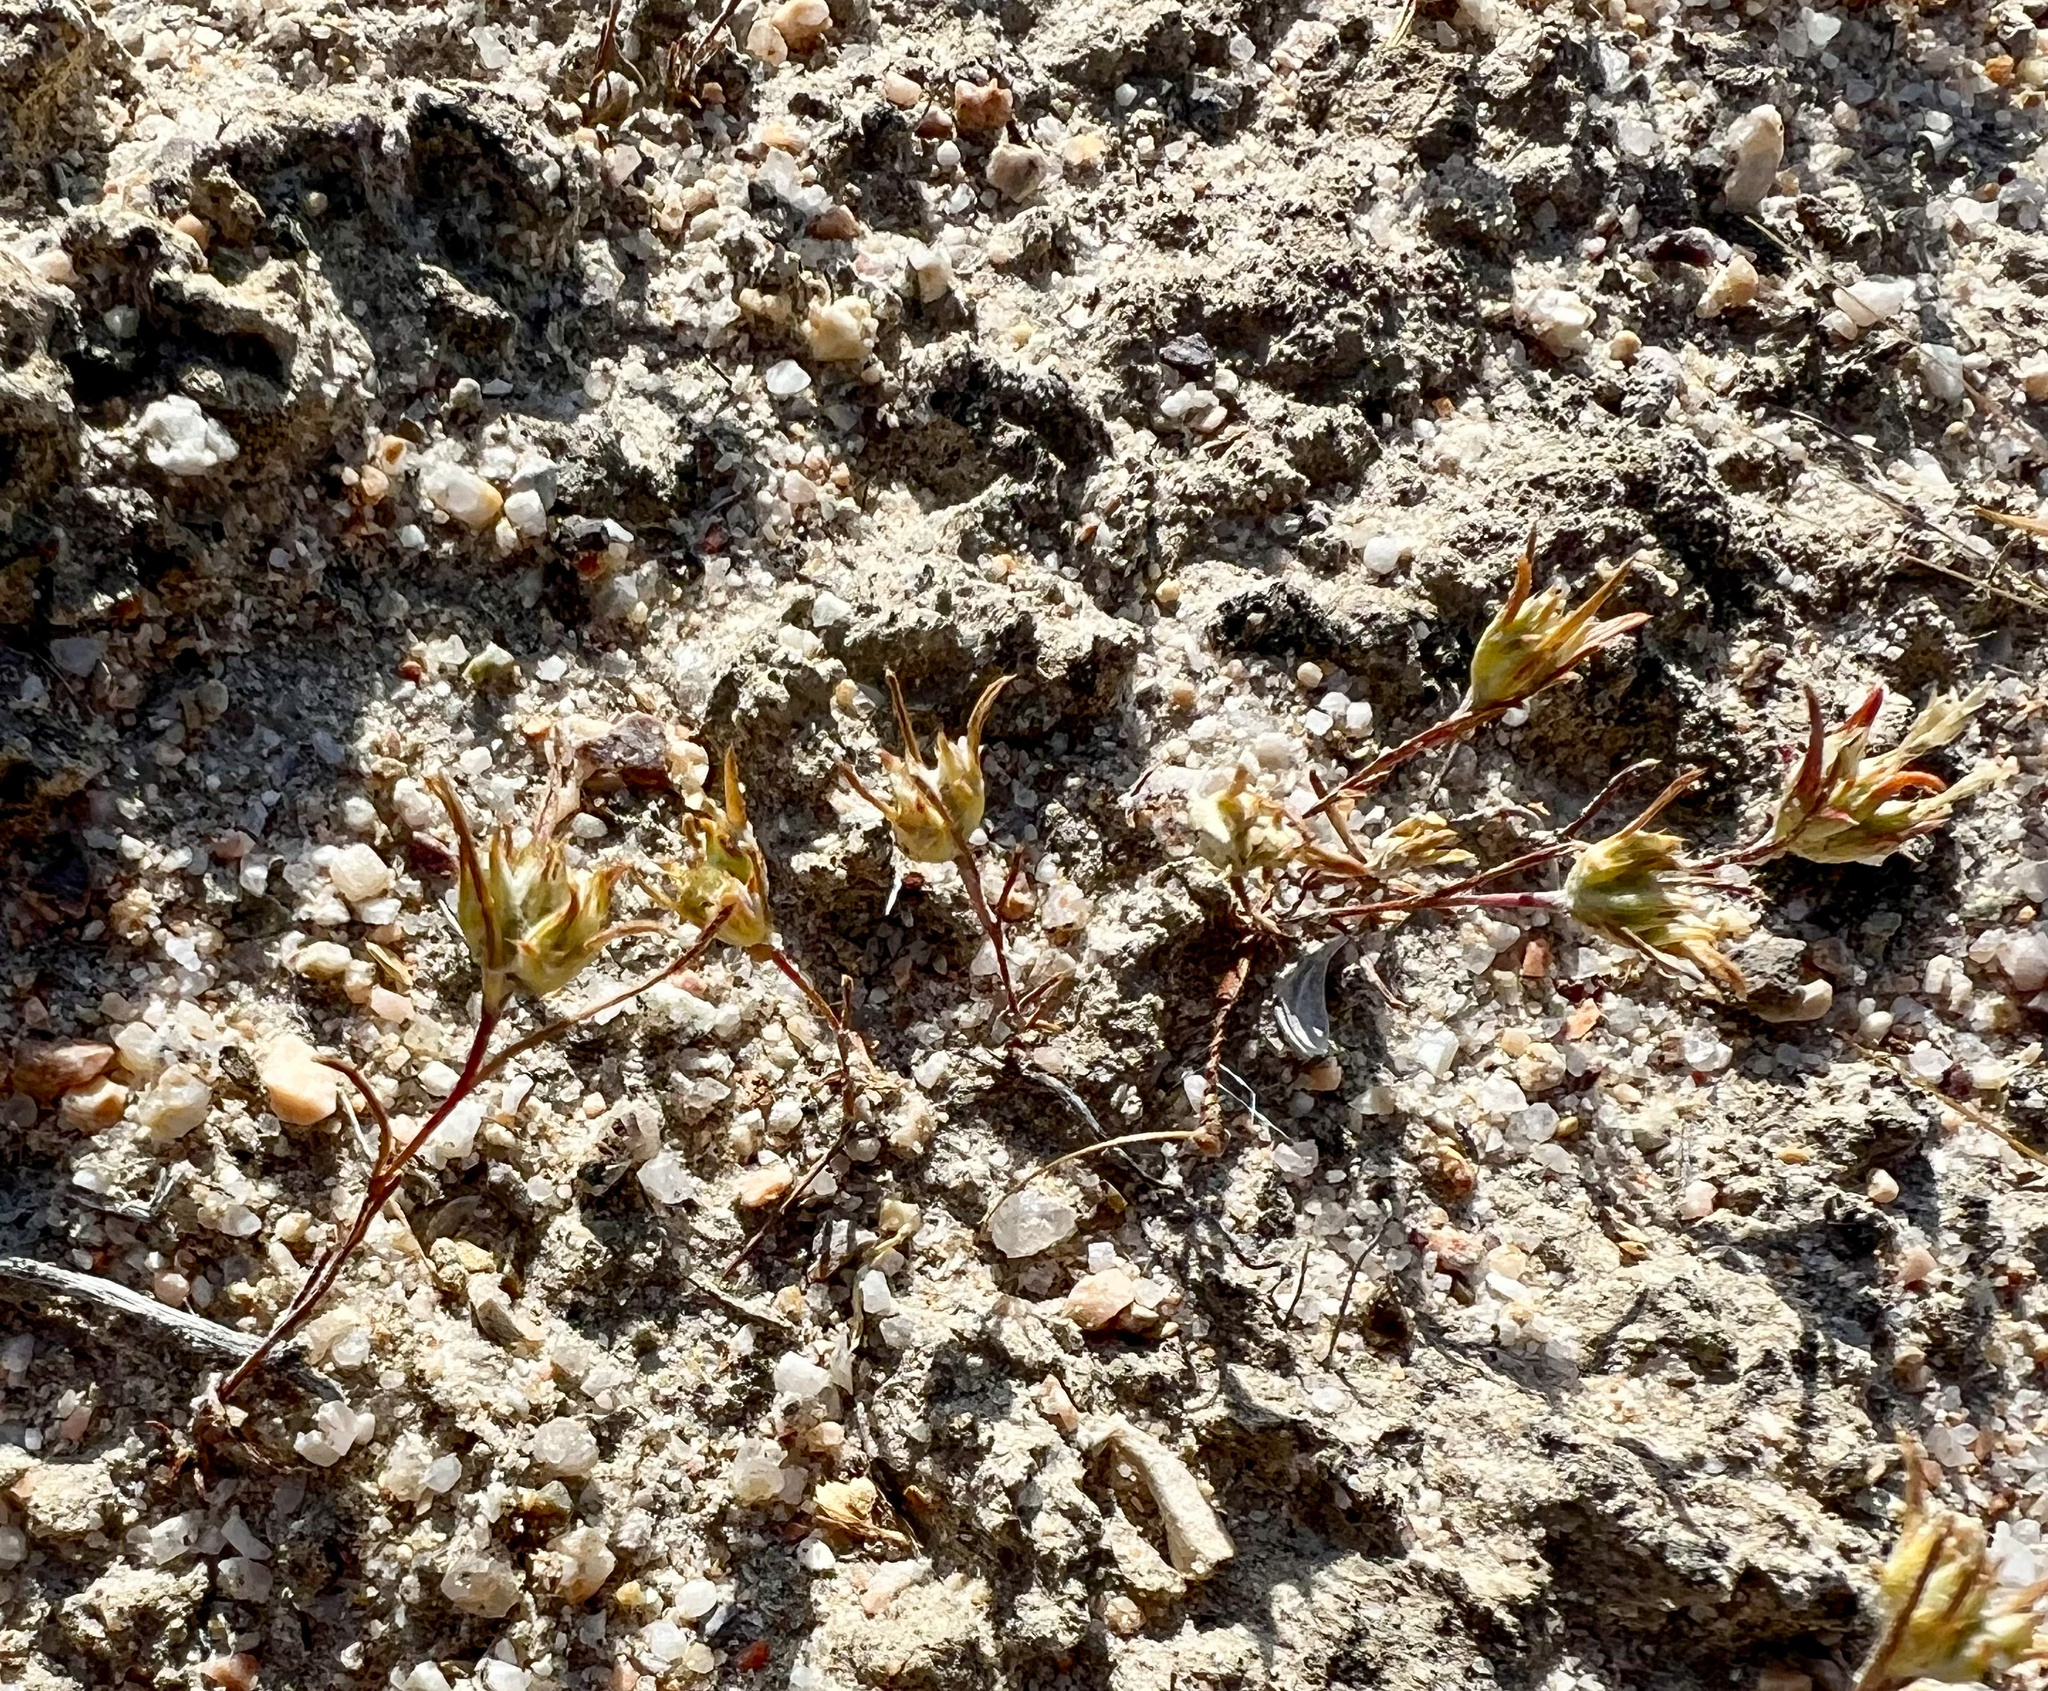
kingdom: Plantae
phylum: Tracheophyta
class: Magnoliopsida
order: Ericales
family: Polemoniaceae
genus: Eriastrum
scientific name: Eriastrum rosamondense
